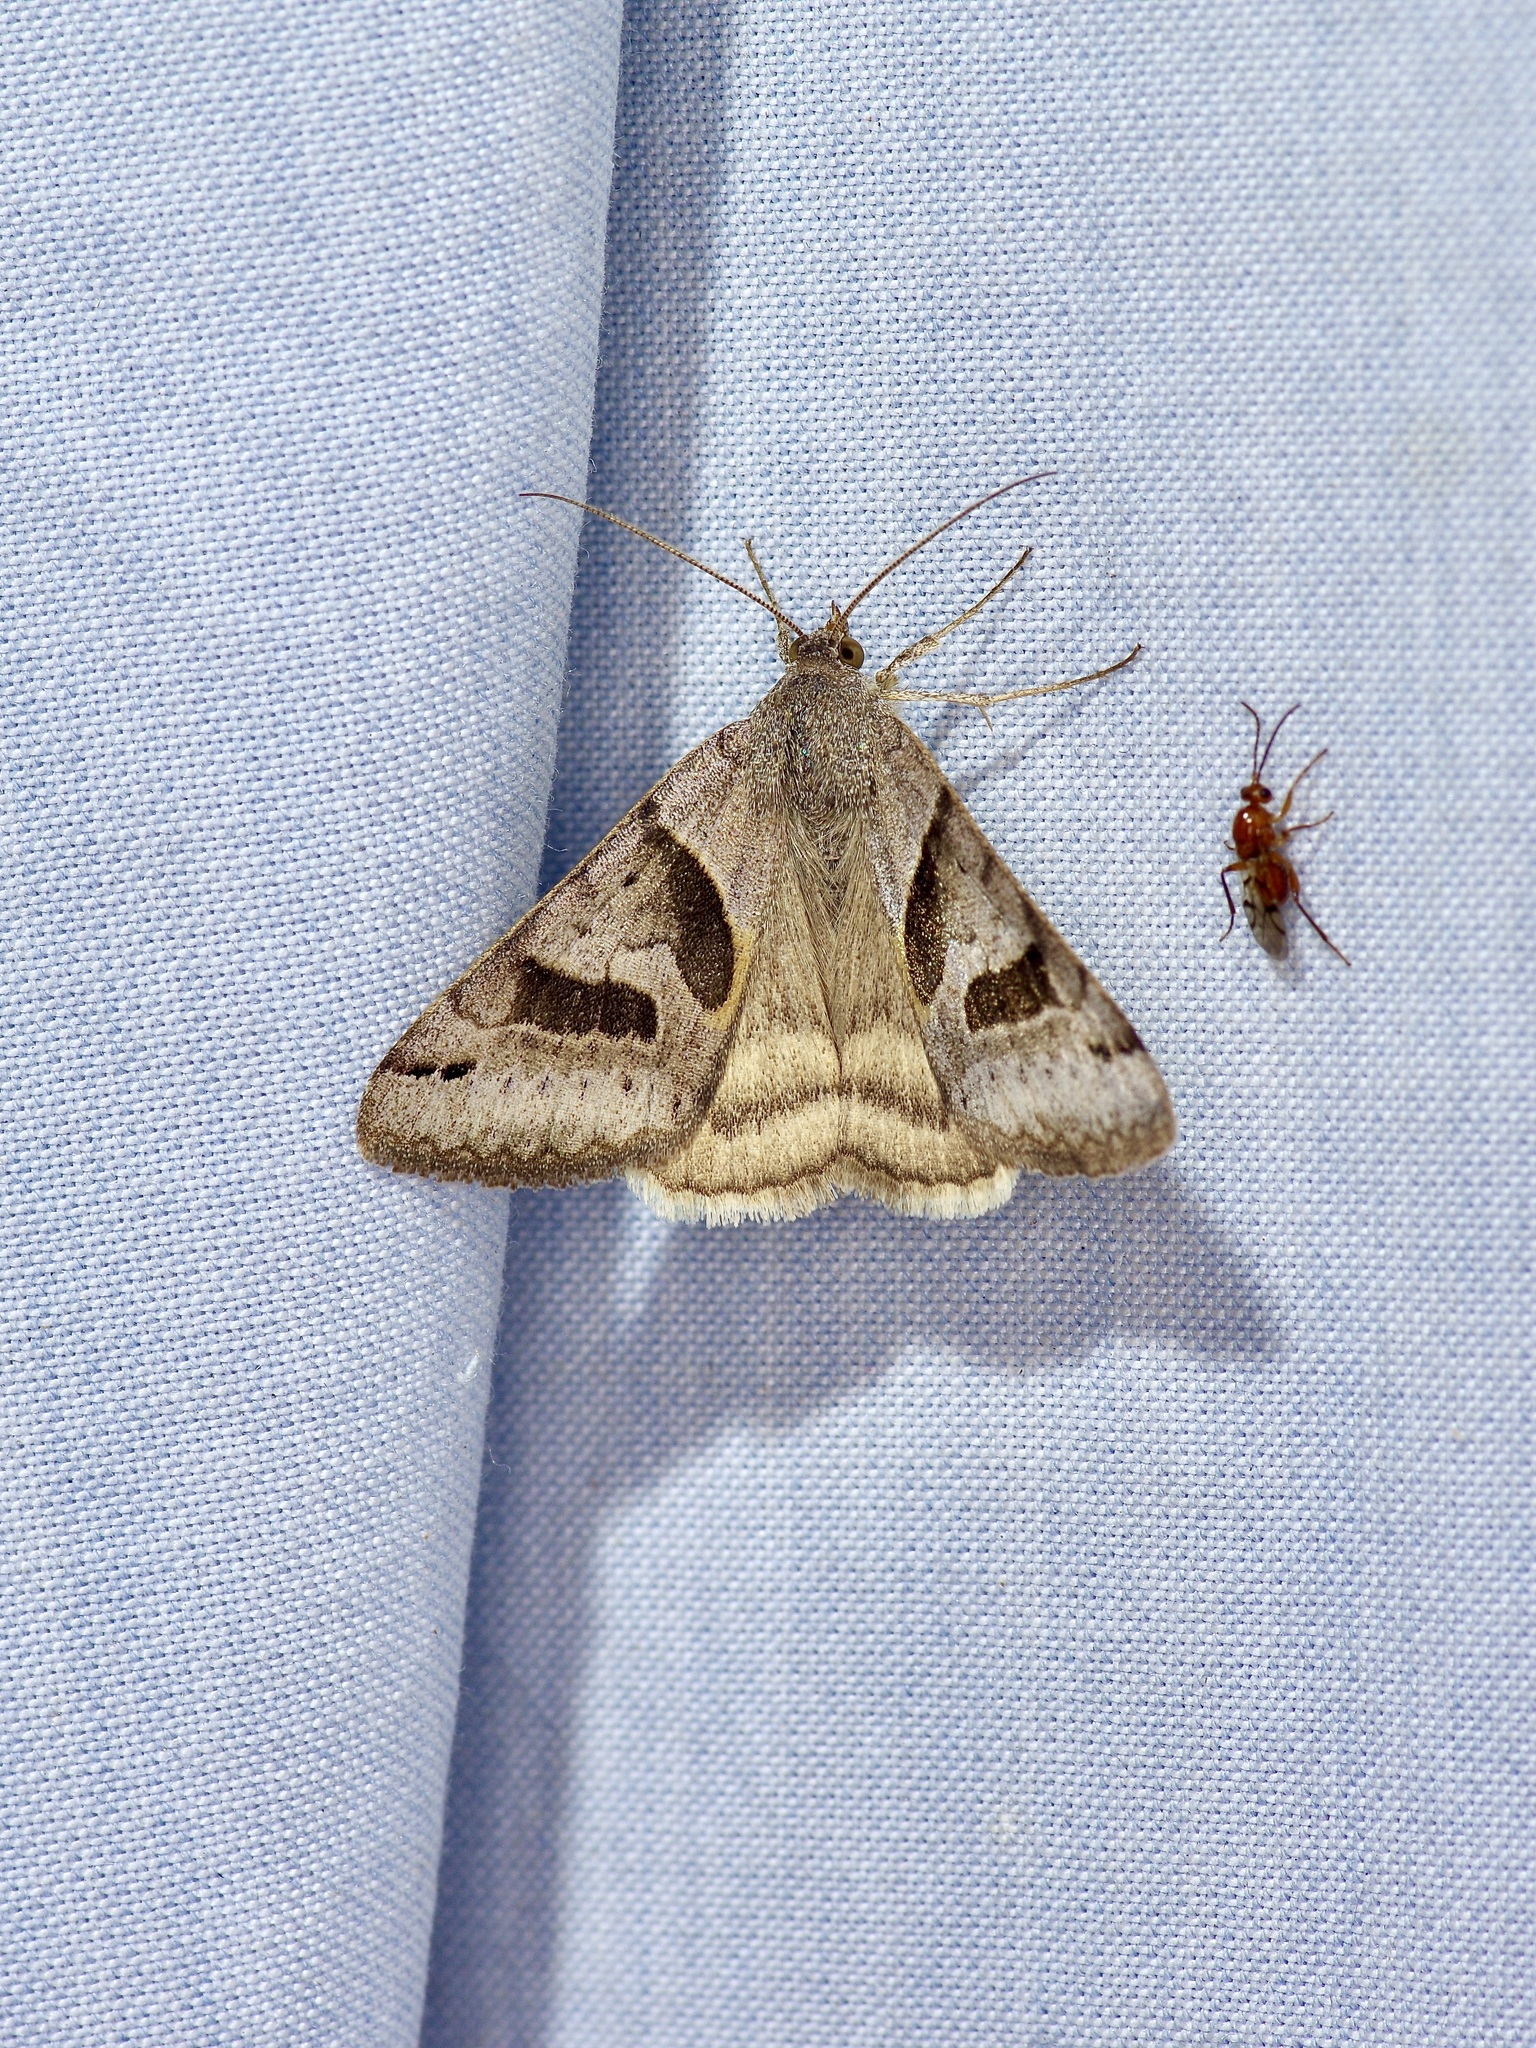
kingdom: Animalia
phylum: Arthropoda
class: Insecta
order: Lepidoptera
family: Erebidae
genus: Caenurgina
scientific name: Caenurgina erechtea
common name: Forage looper moth
